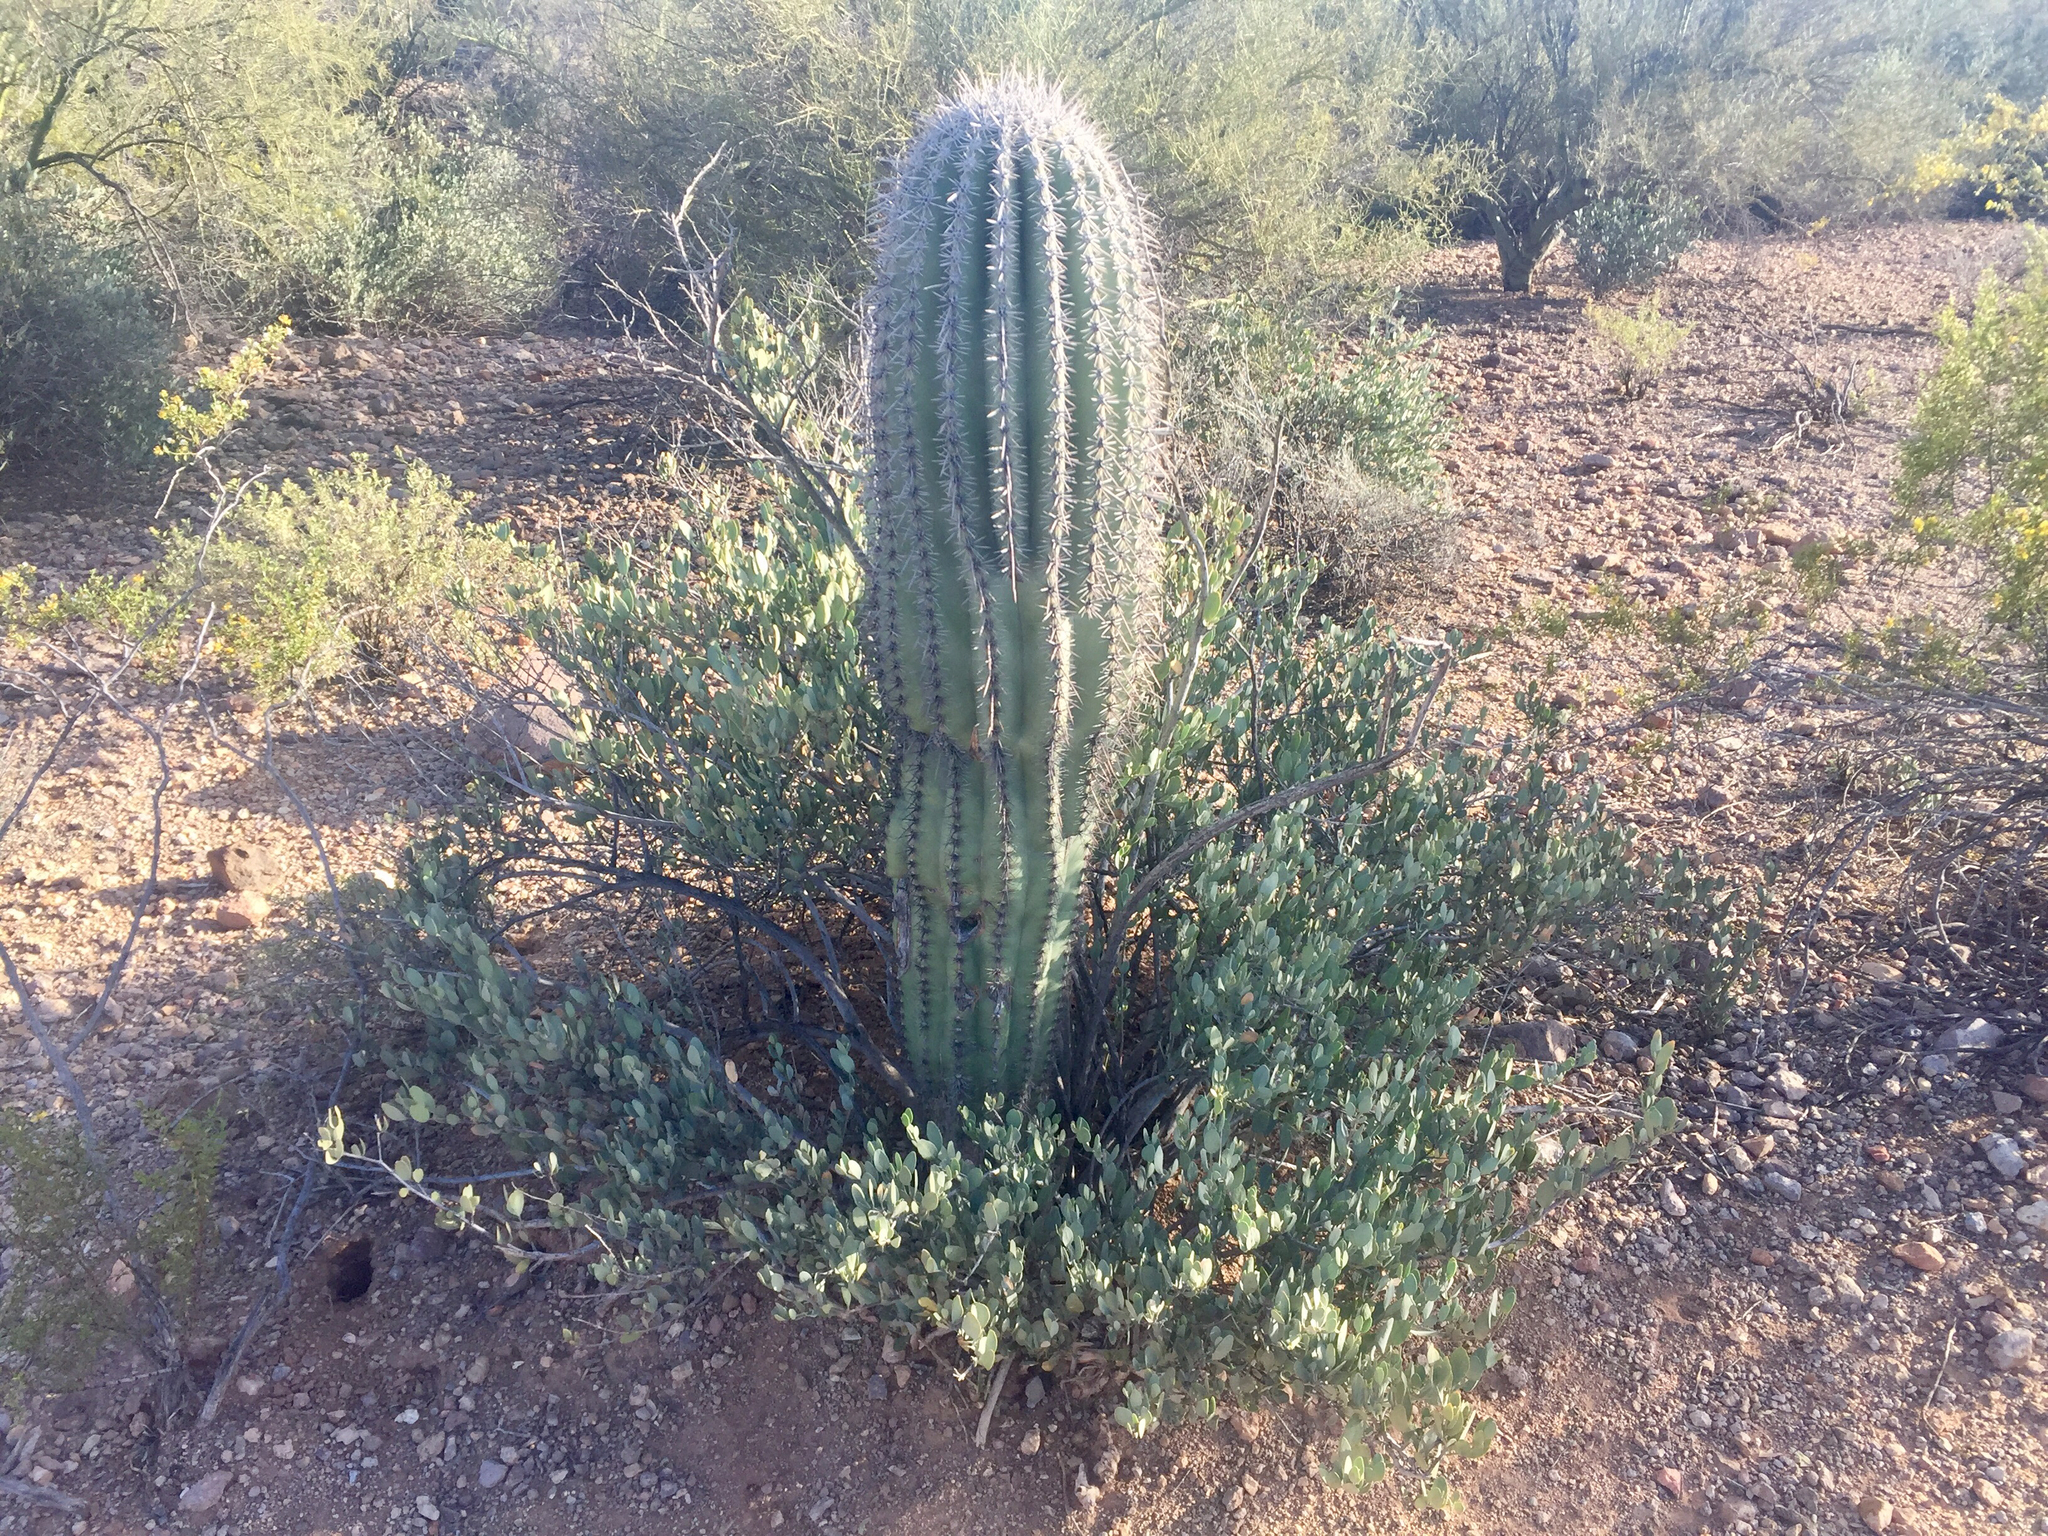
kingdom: Plantae
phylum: Tracheophyta
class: Magnoliopsida
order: Caryophyllales
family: Cactaceae
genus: Carnegiea
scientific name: Carnegiea gigantea
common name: Saguaro
